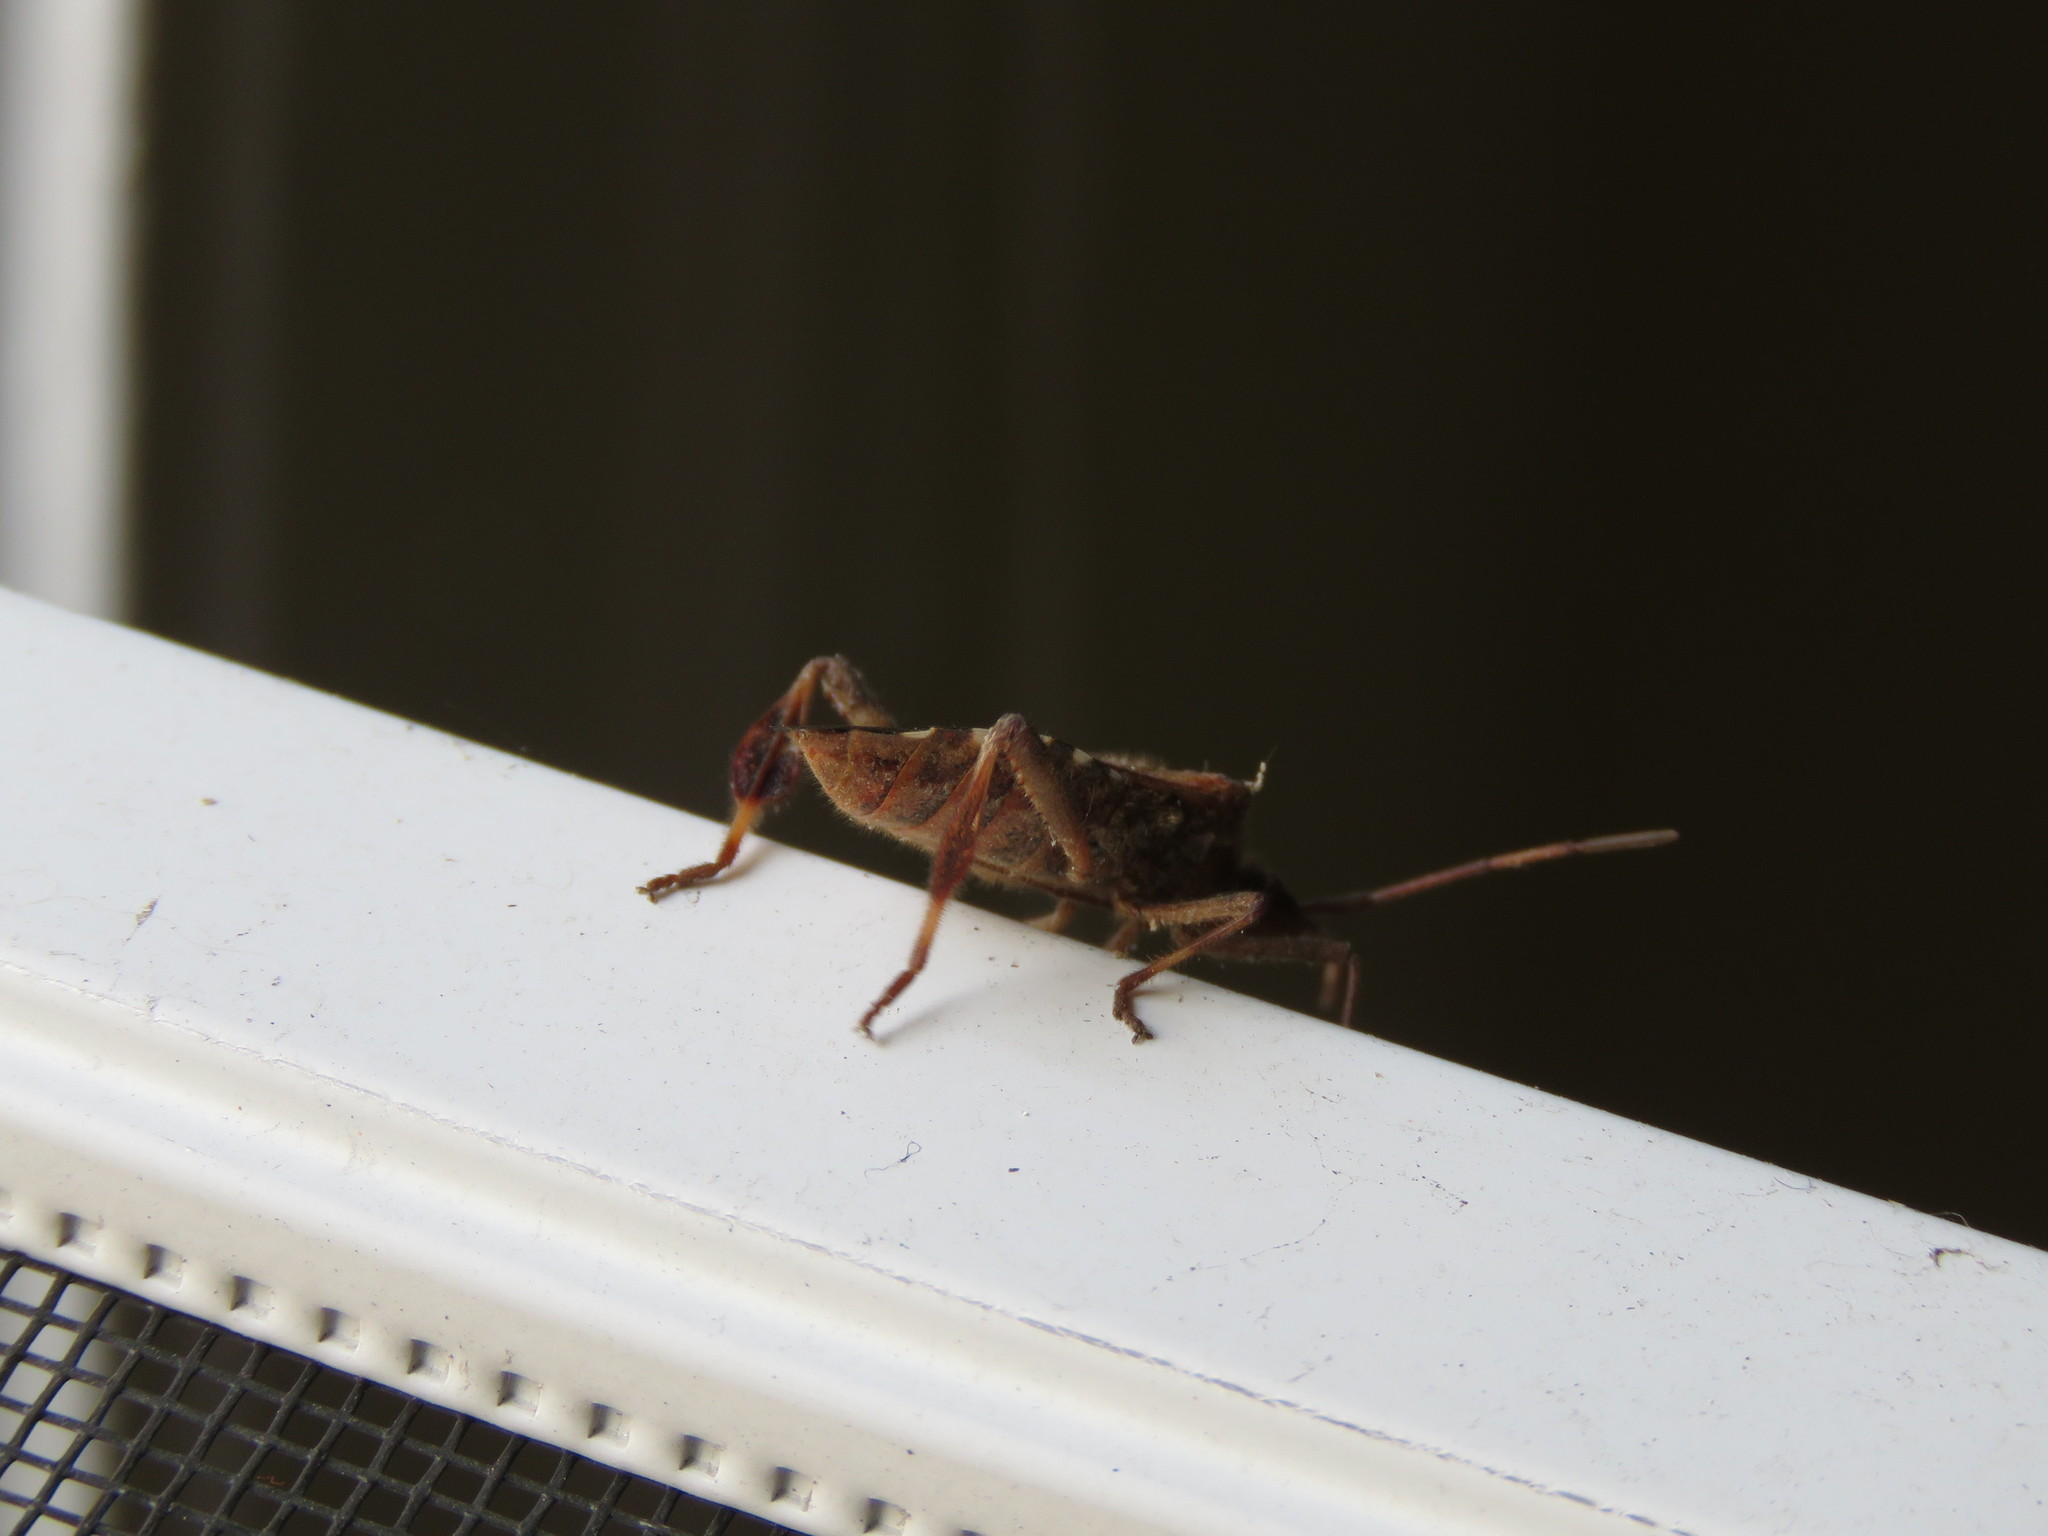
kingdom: Animalia
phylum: Arthropoda
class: Insecta
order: Hemiptera
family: Coreidae
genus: Leptoglossus
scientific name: Leptoglossus occidentalis
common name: Western conifer-seed bug
